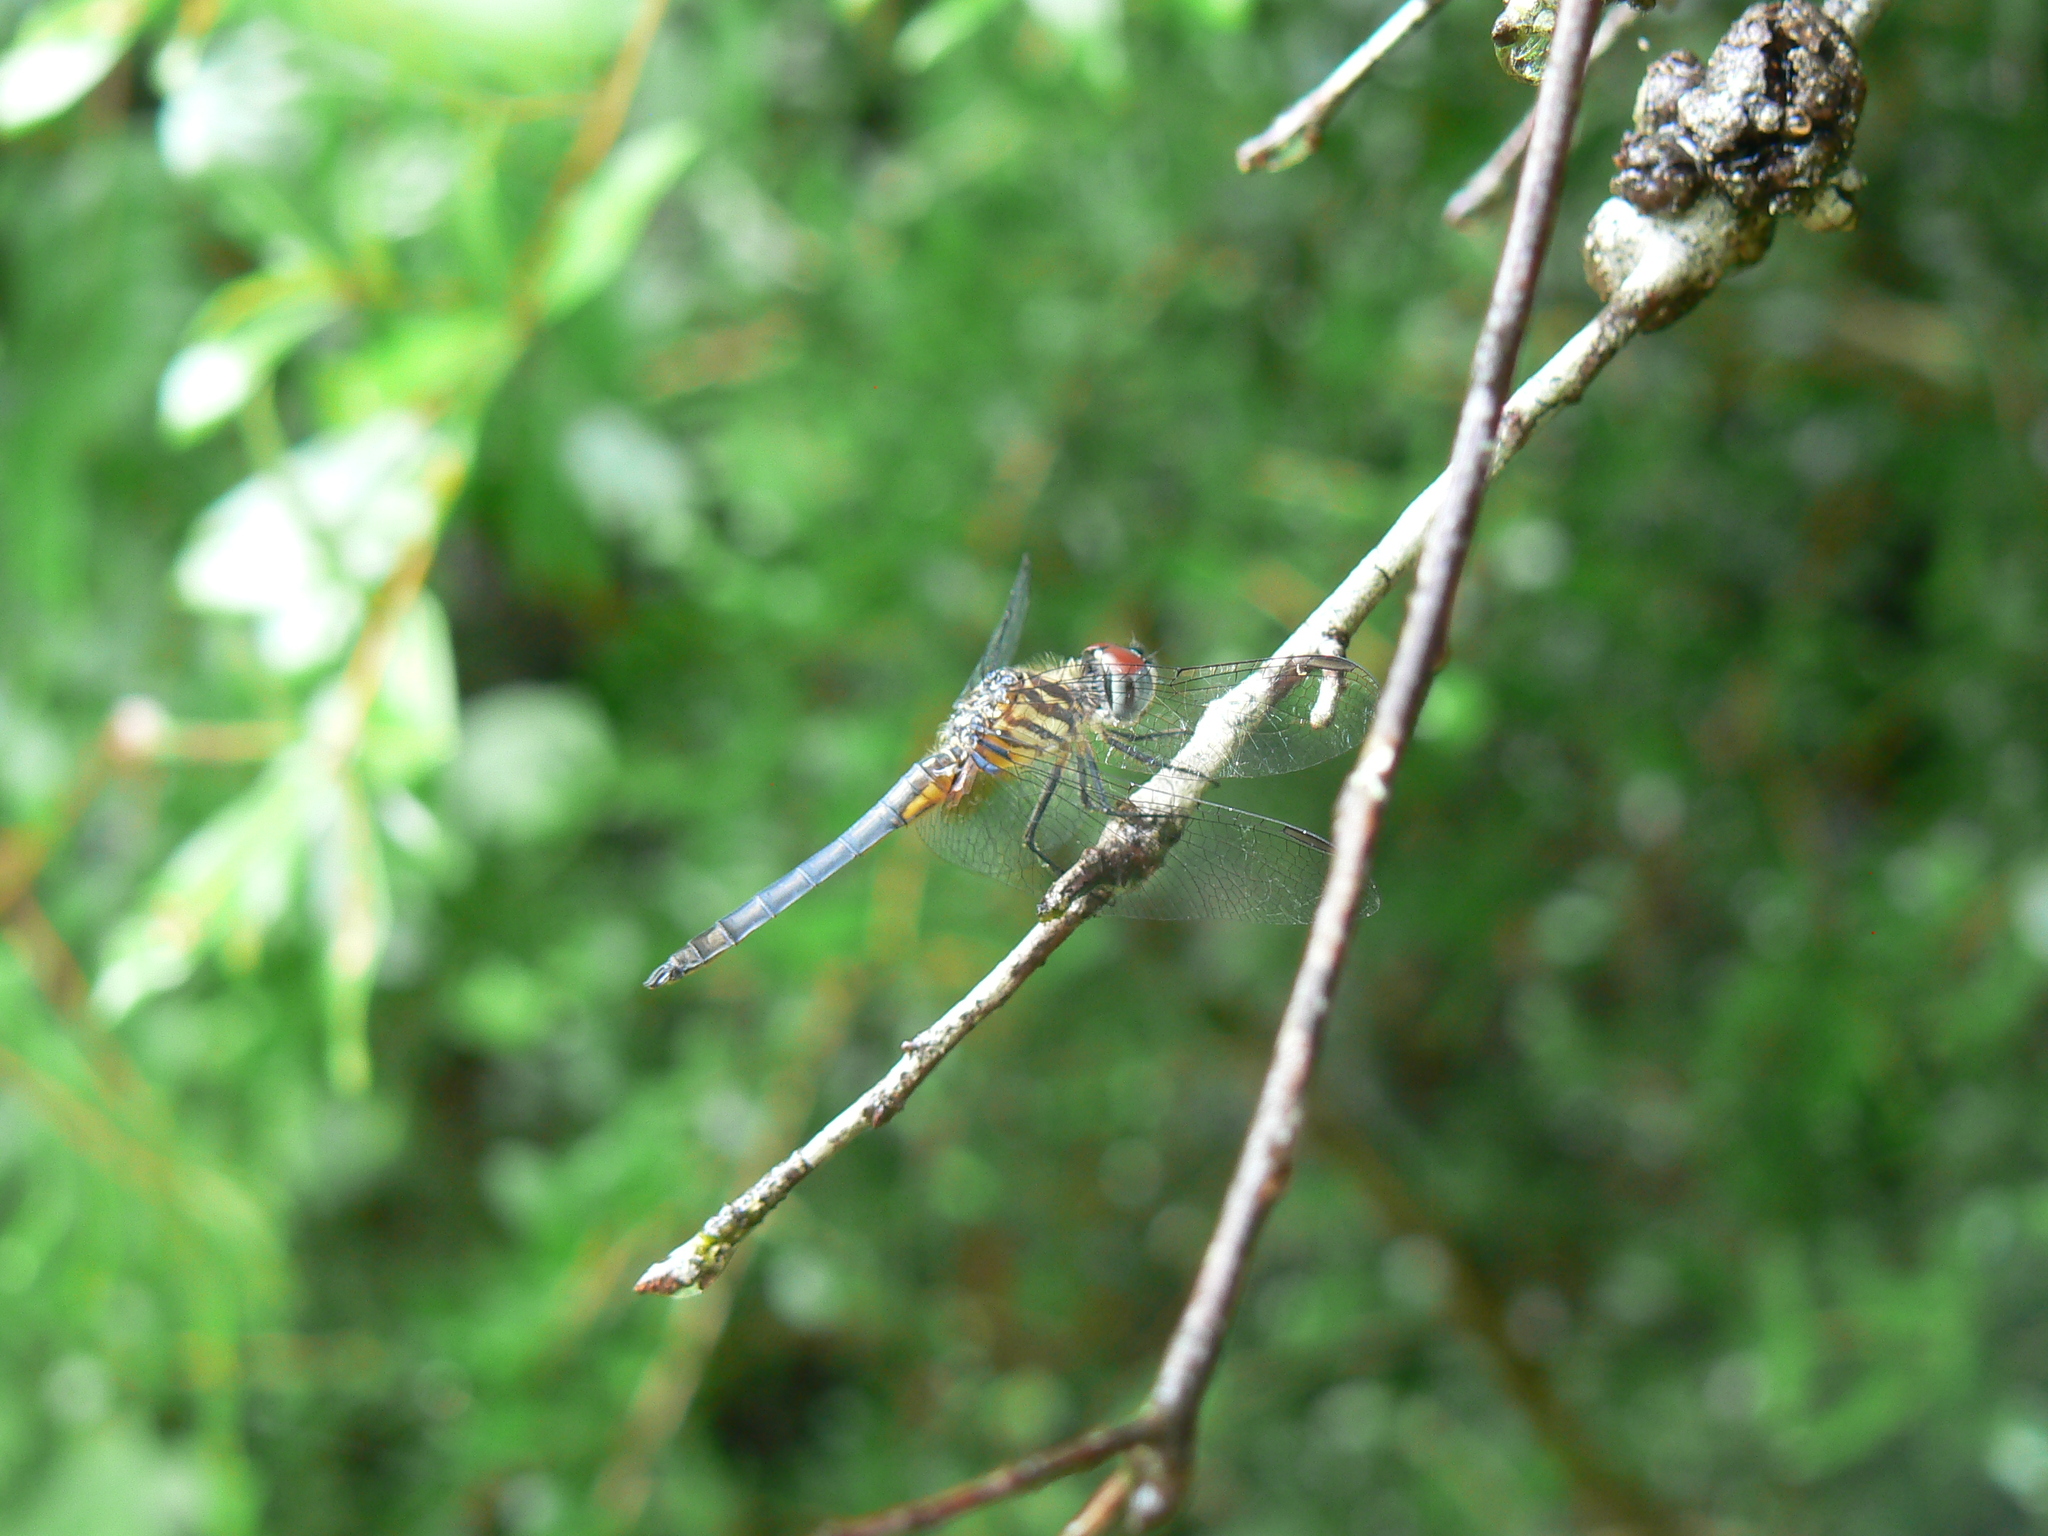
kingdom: Animalia
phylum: Arthropoda
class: Insecta
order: Odonata
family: Libellulidae
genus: Pachydiplax
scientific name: Pachydiplax longipennis
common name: Blue dasher
